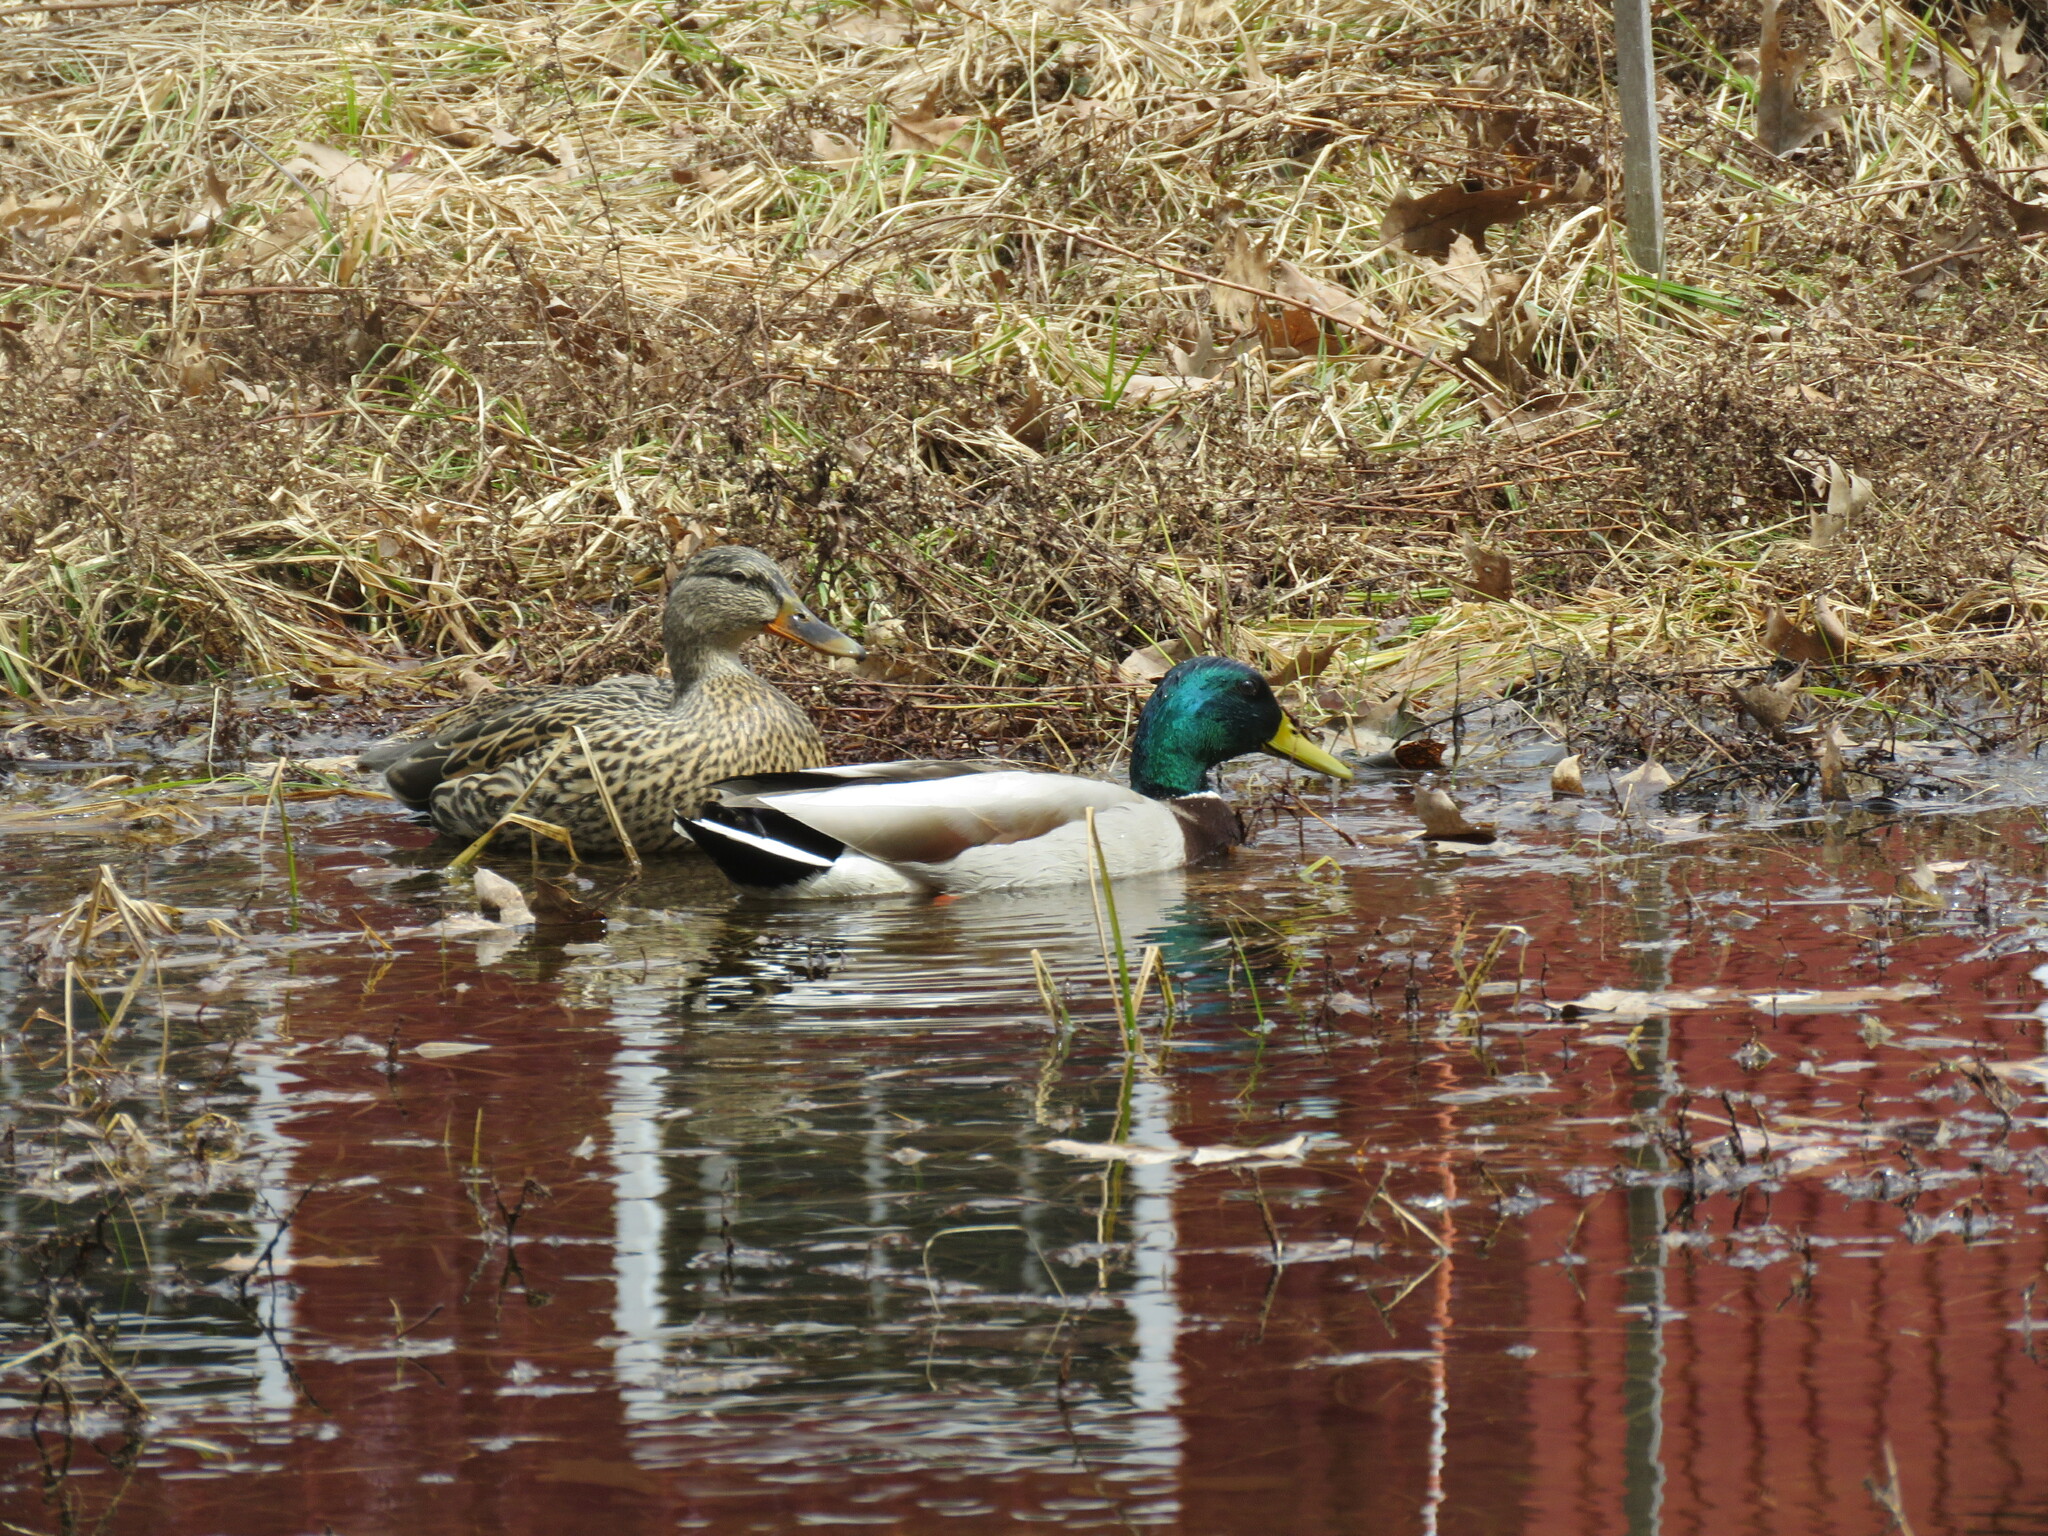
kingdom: Animalia
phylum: Chordata
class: Aves
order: Anseriformes
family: Anatidae
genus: Anas
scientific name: Anas platyrhynchos
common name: Mallard
